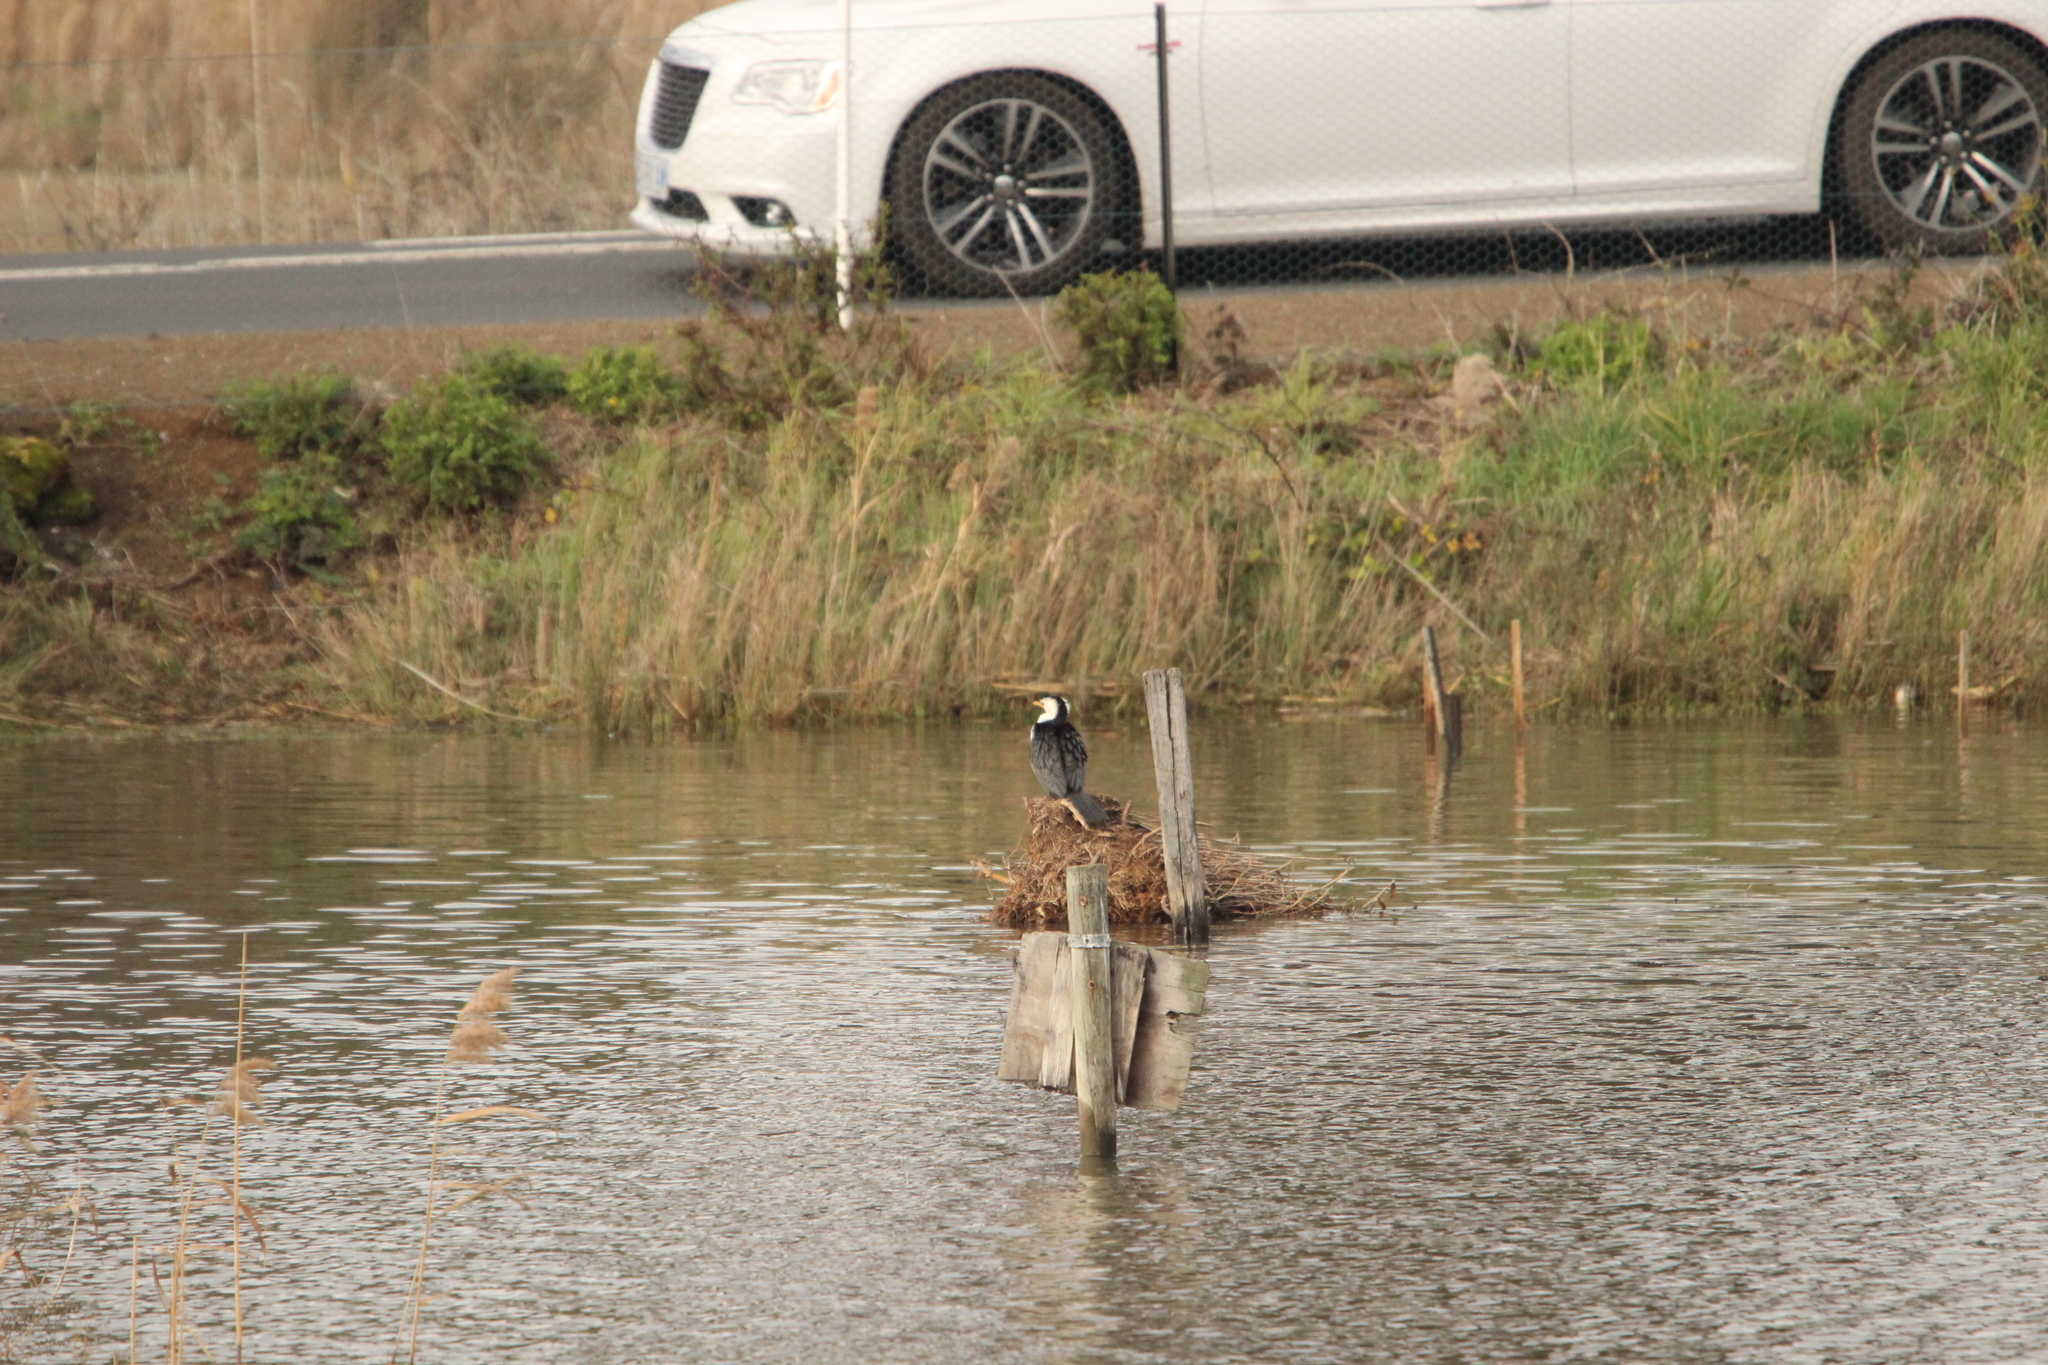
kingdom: Animalia
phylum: Chordata
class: Aves
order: Suliformes
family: Phalacrocoracidae
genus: Microcarbo
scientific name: Microcarbo melanoleucos
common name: Little pied cormorant
